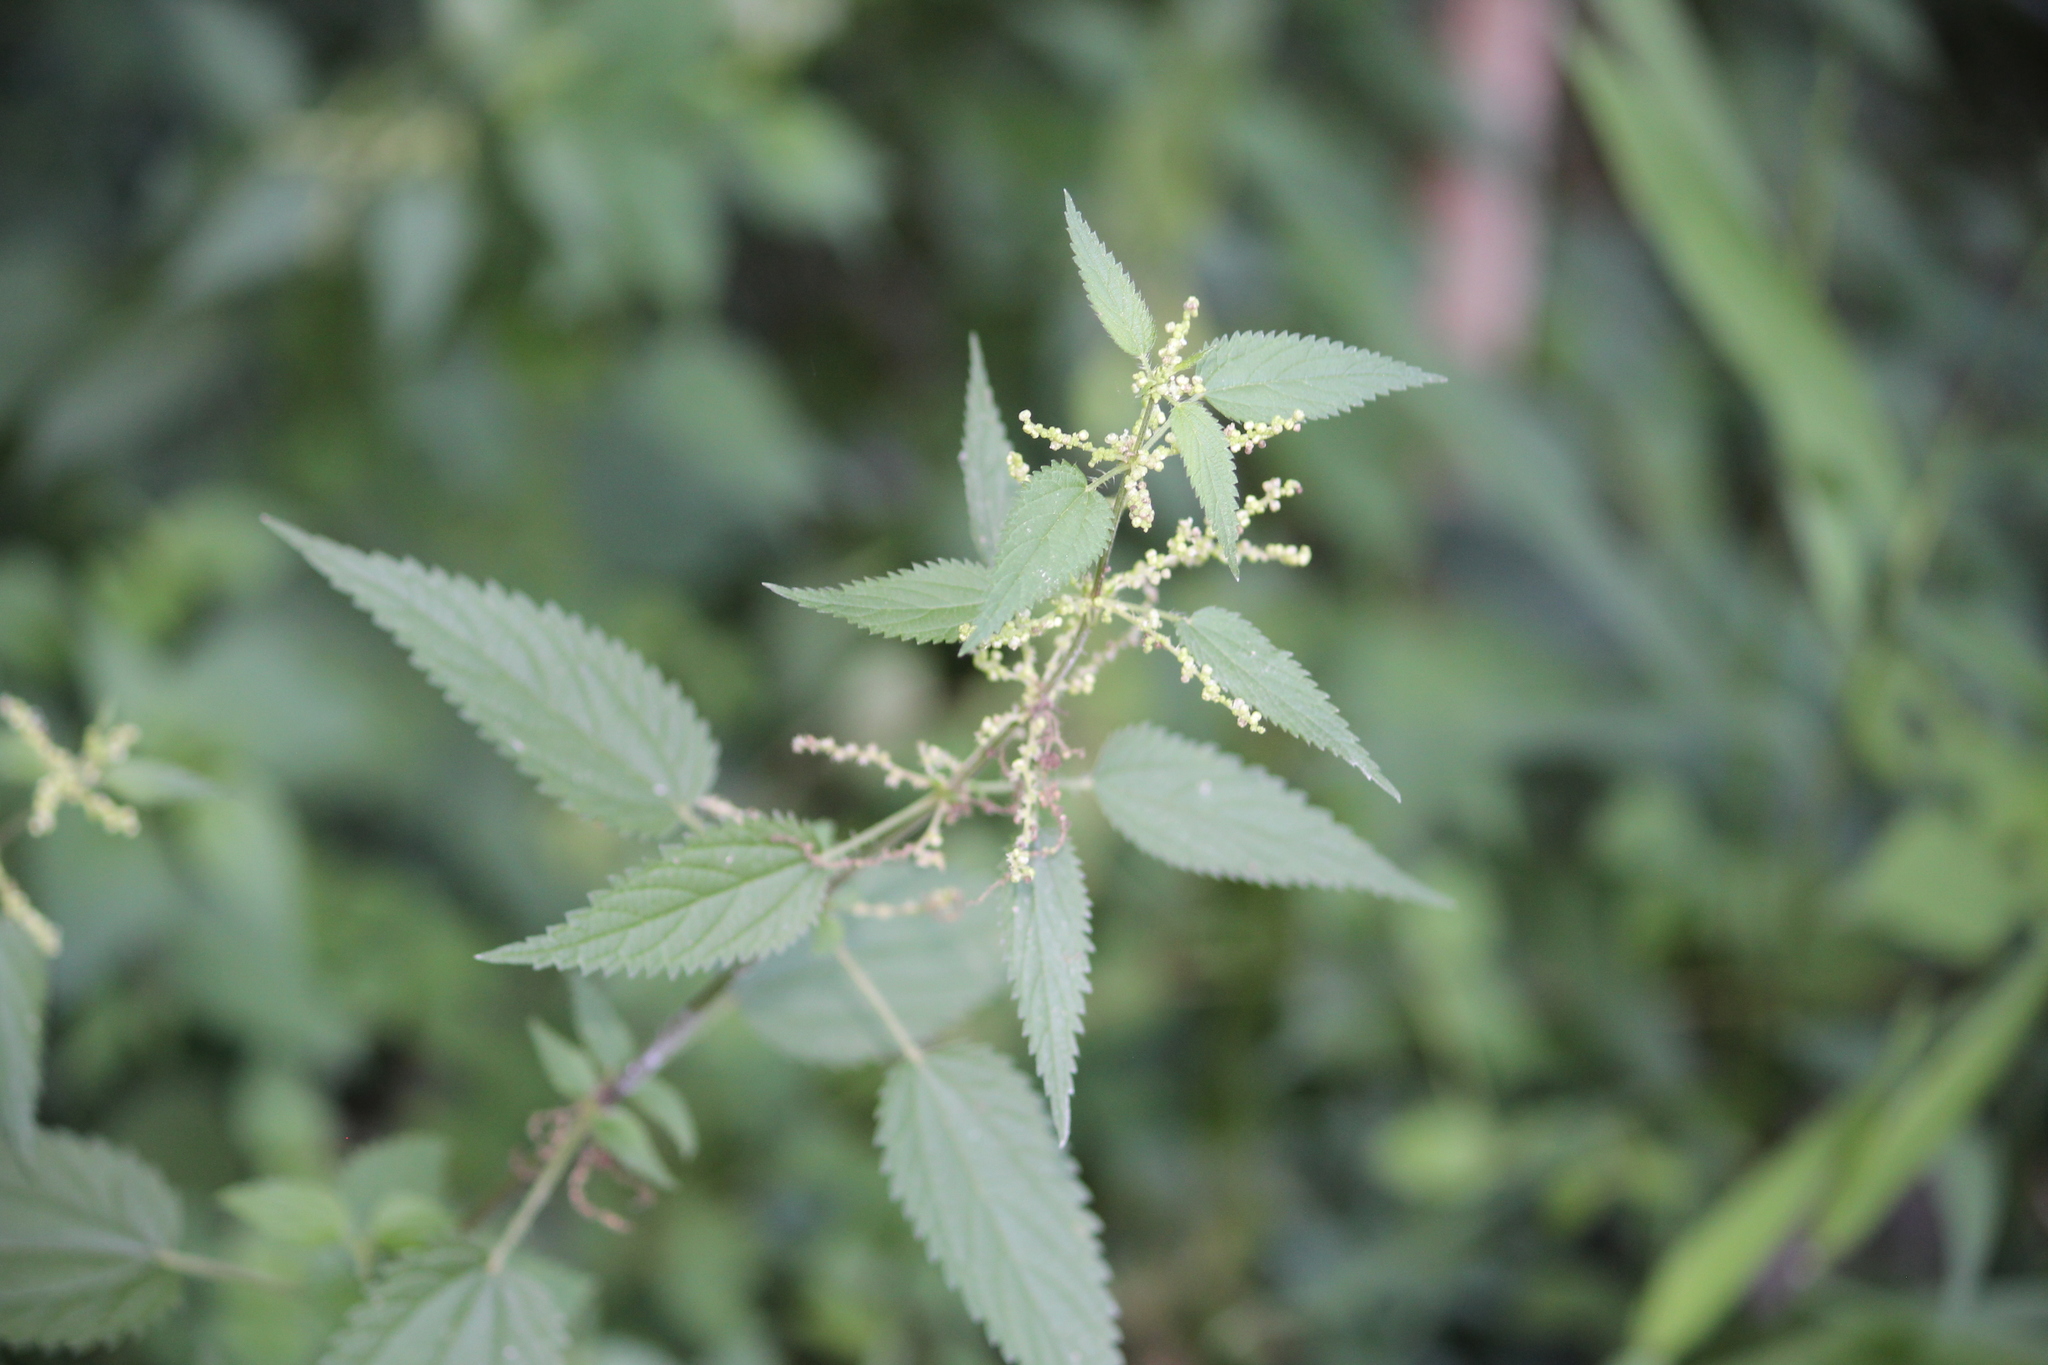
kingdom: Plantae
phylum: Tracheophyta
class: Magnoliopsida
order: Rosales
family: Urticaceae
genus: Urtica
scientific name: Urtica gracilis
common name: Slender stinging nettle
